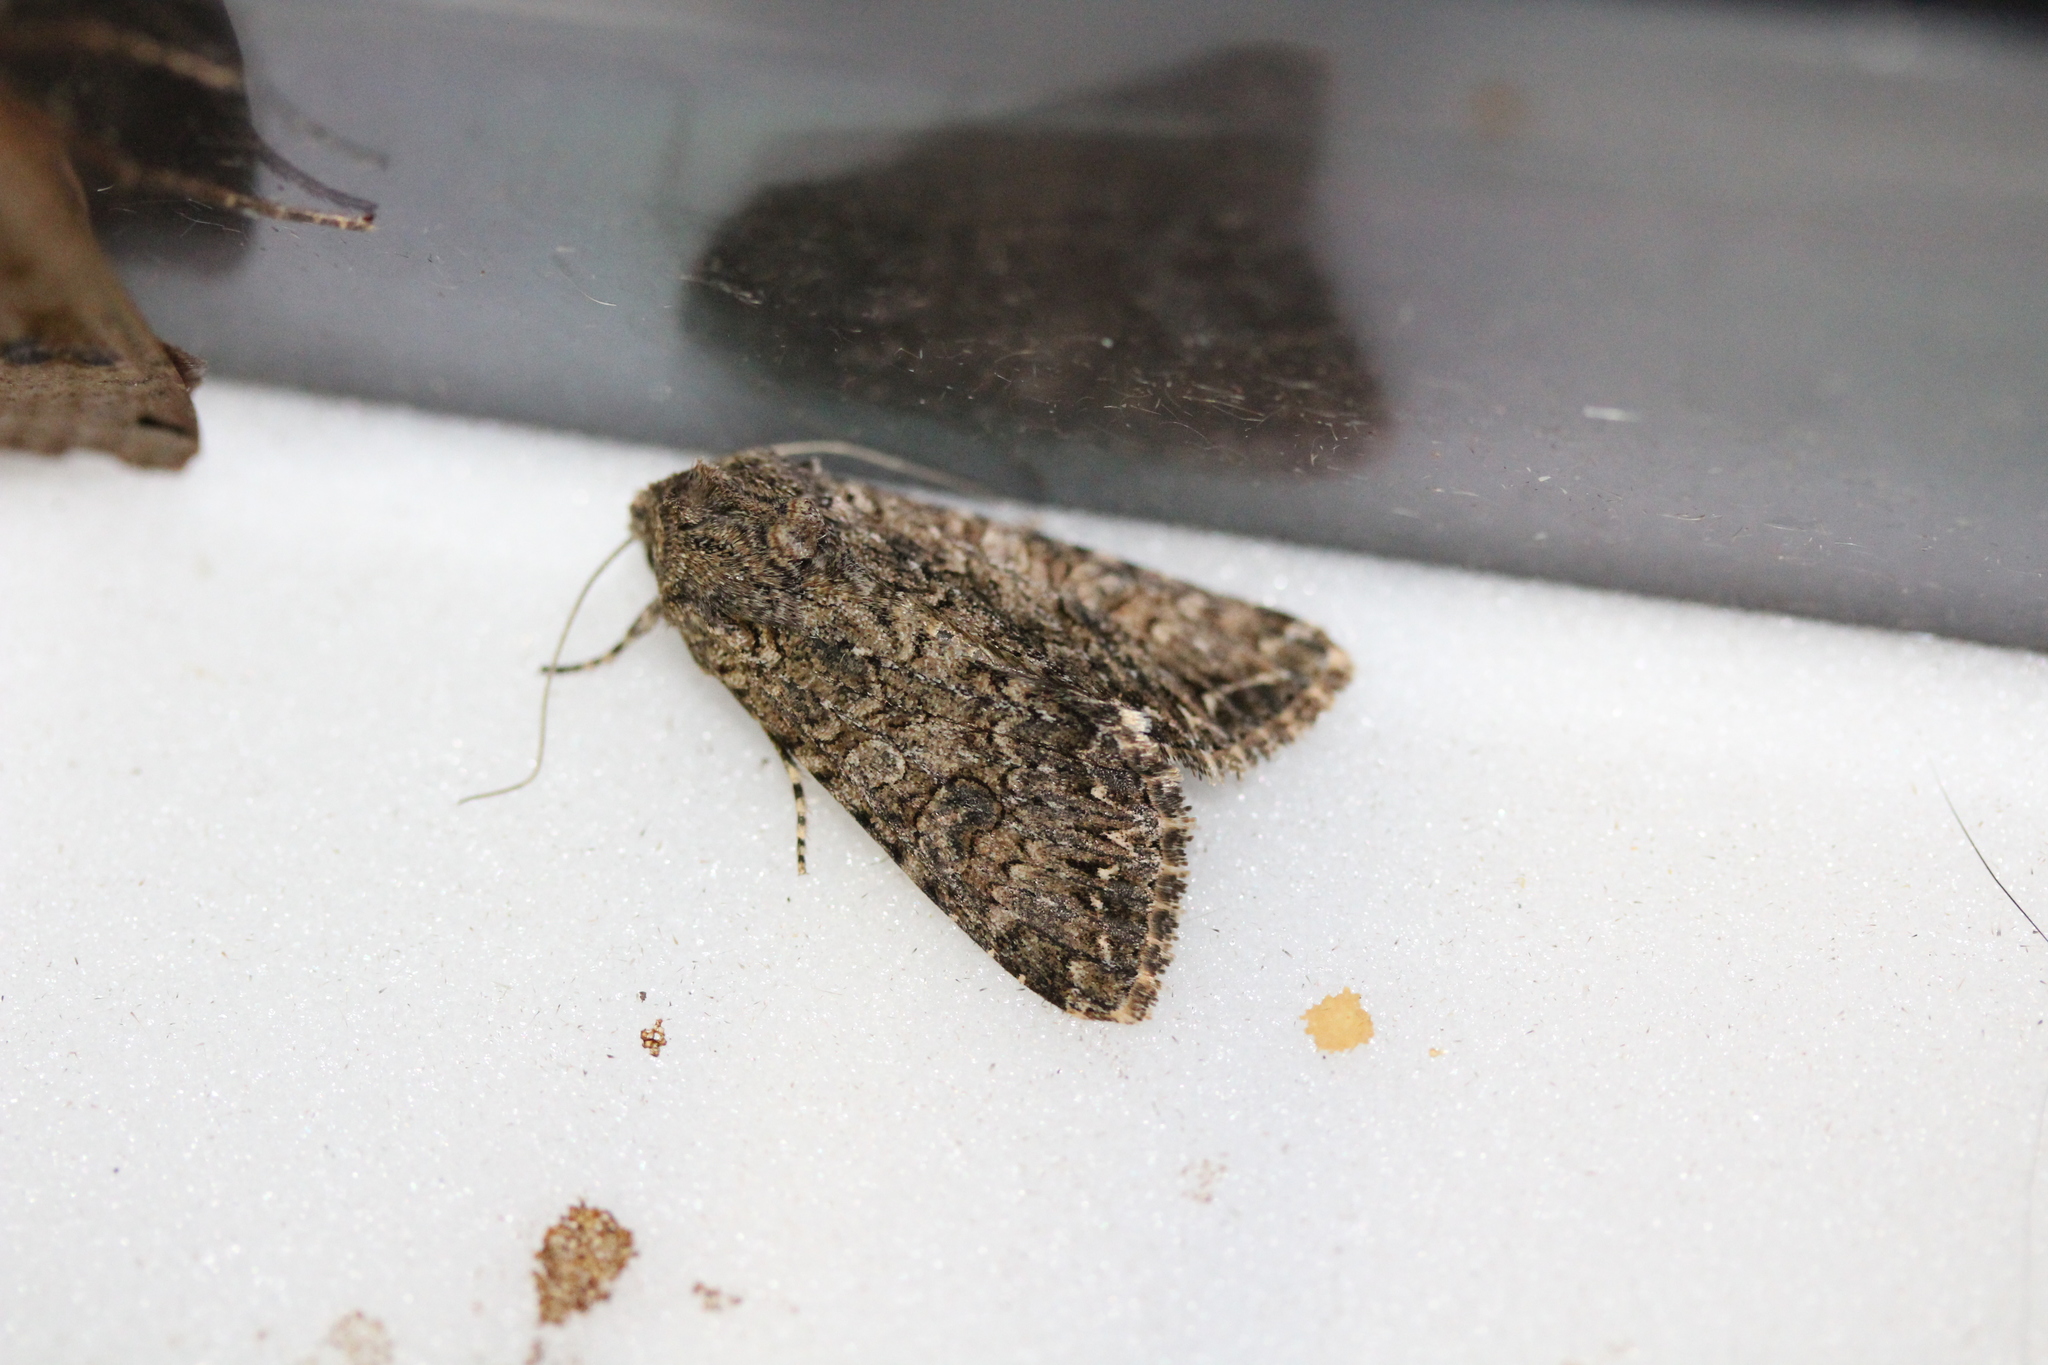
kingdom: Animalia
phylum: Arthropoda
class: Insecta
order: Lepidoptera
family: Noctuidae
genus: Anarta
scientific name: Anarta trifolii
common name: Clover cutworm moth
